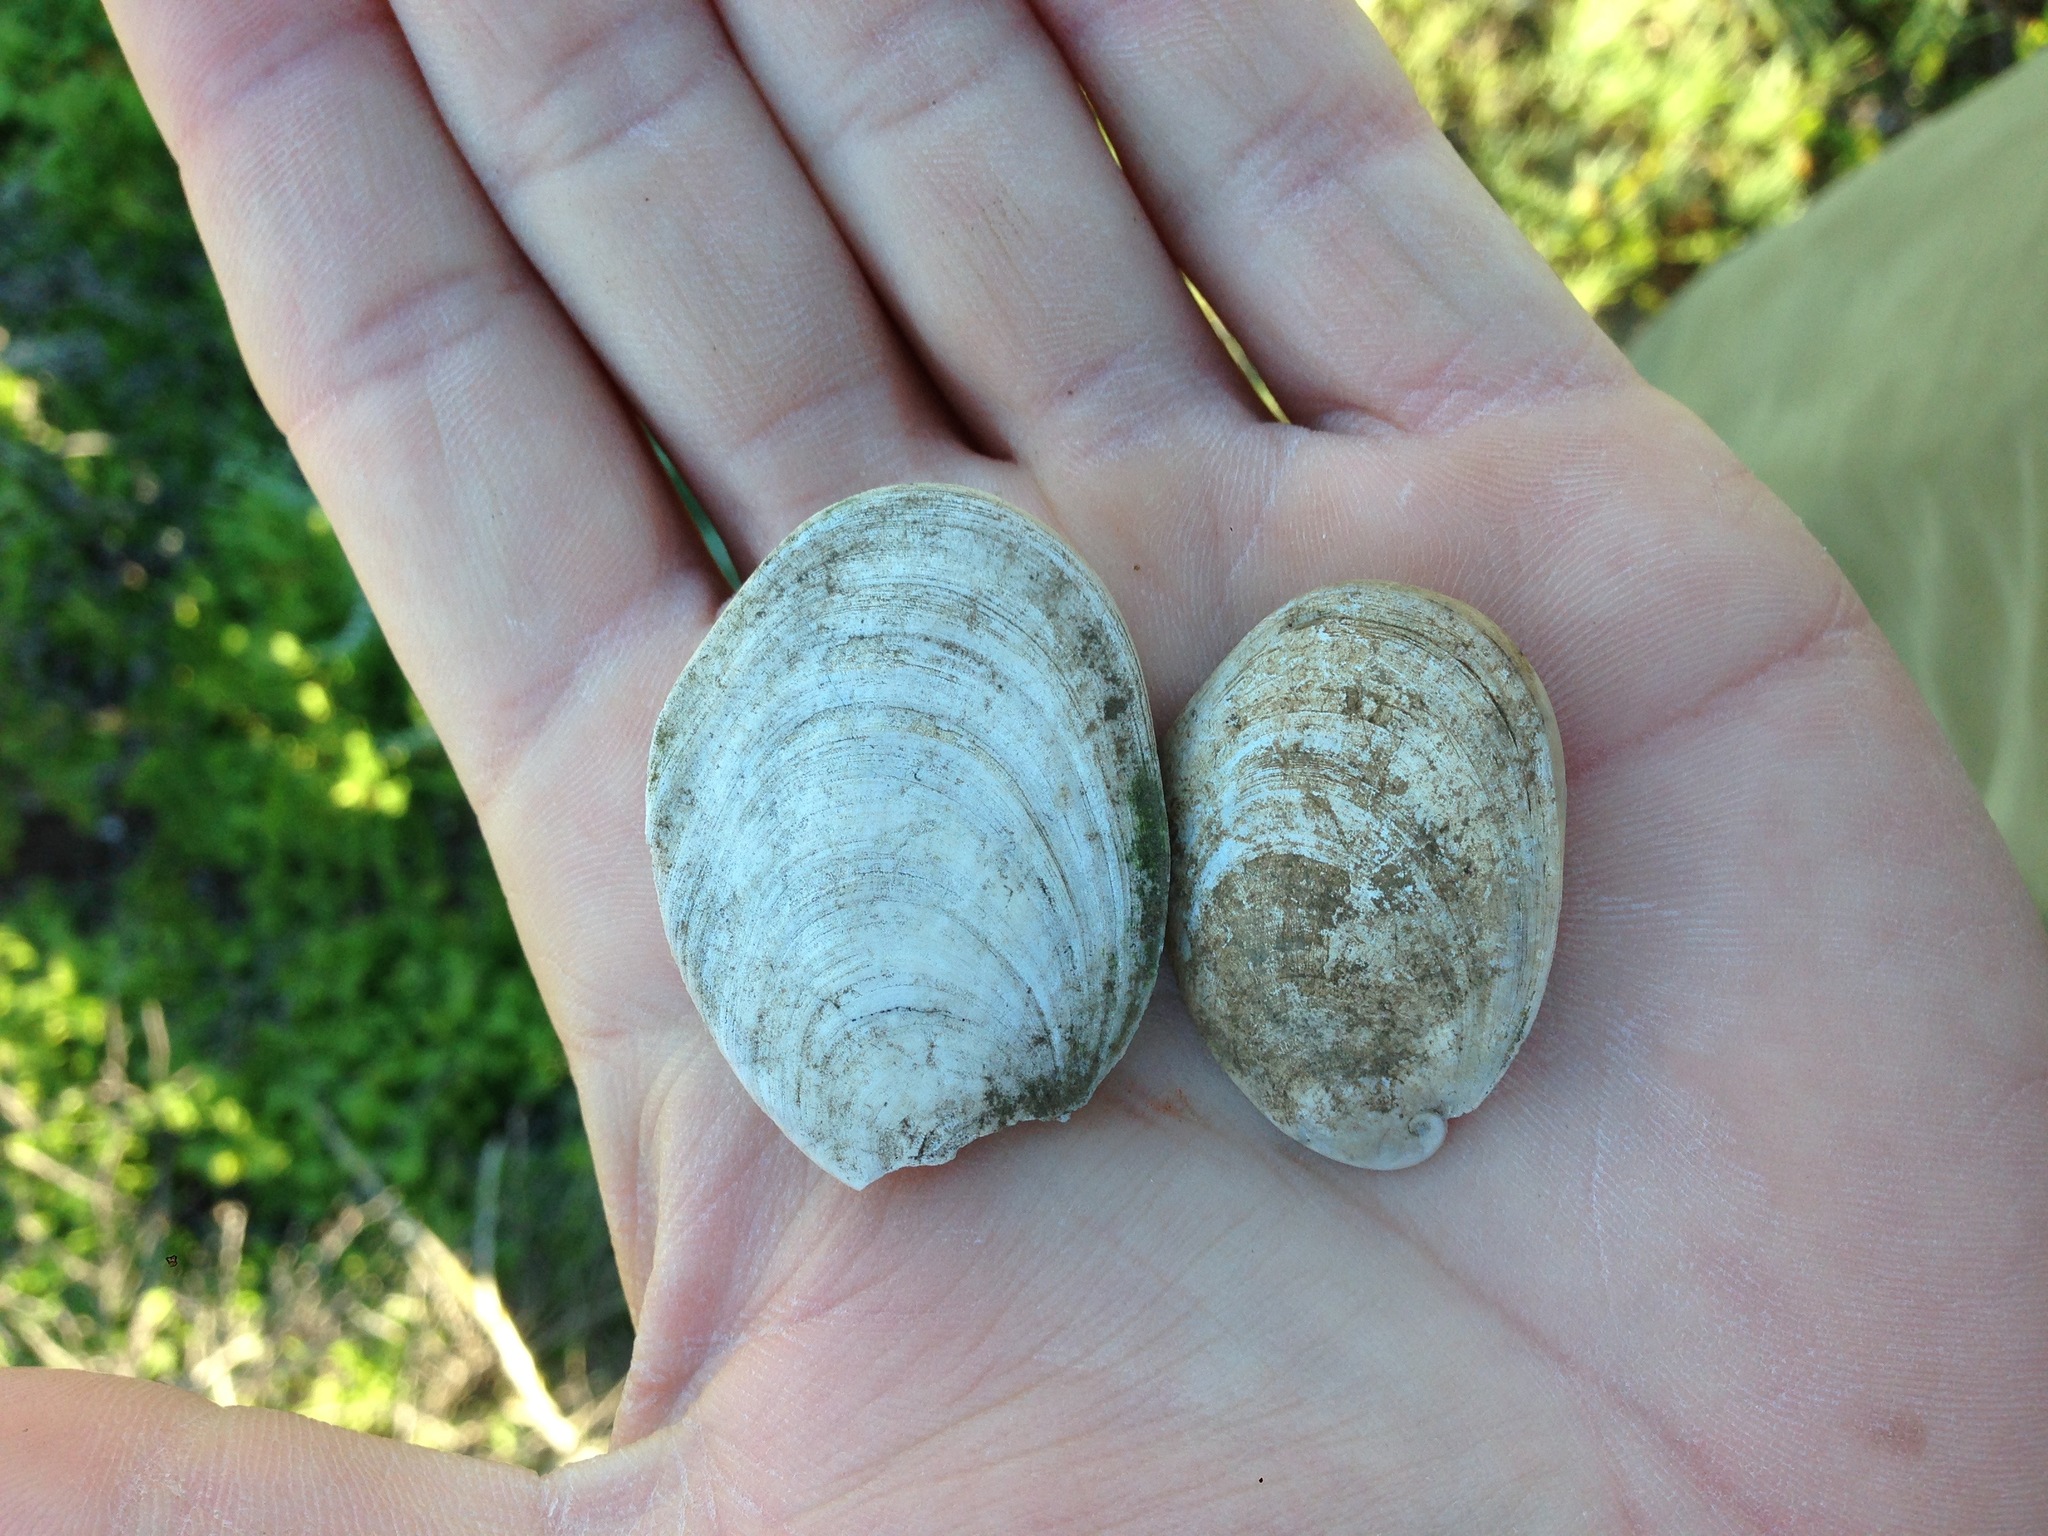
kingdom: Animalia
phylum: Mollusca
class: Gastropoda
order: Trochida
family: Turbinidae
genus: Megastraea
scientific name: Megastraea undosa
